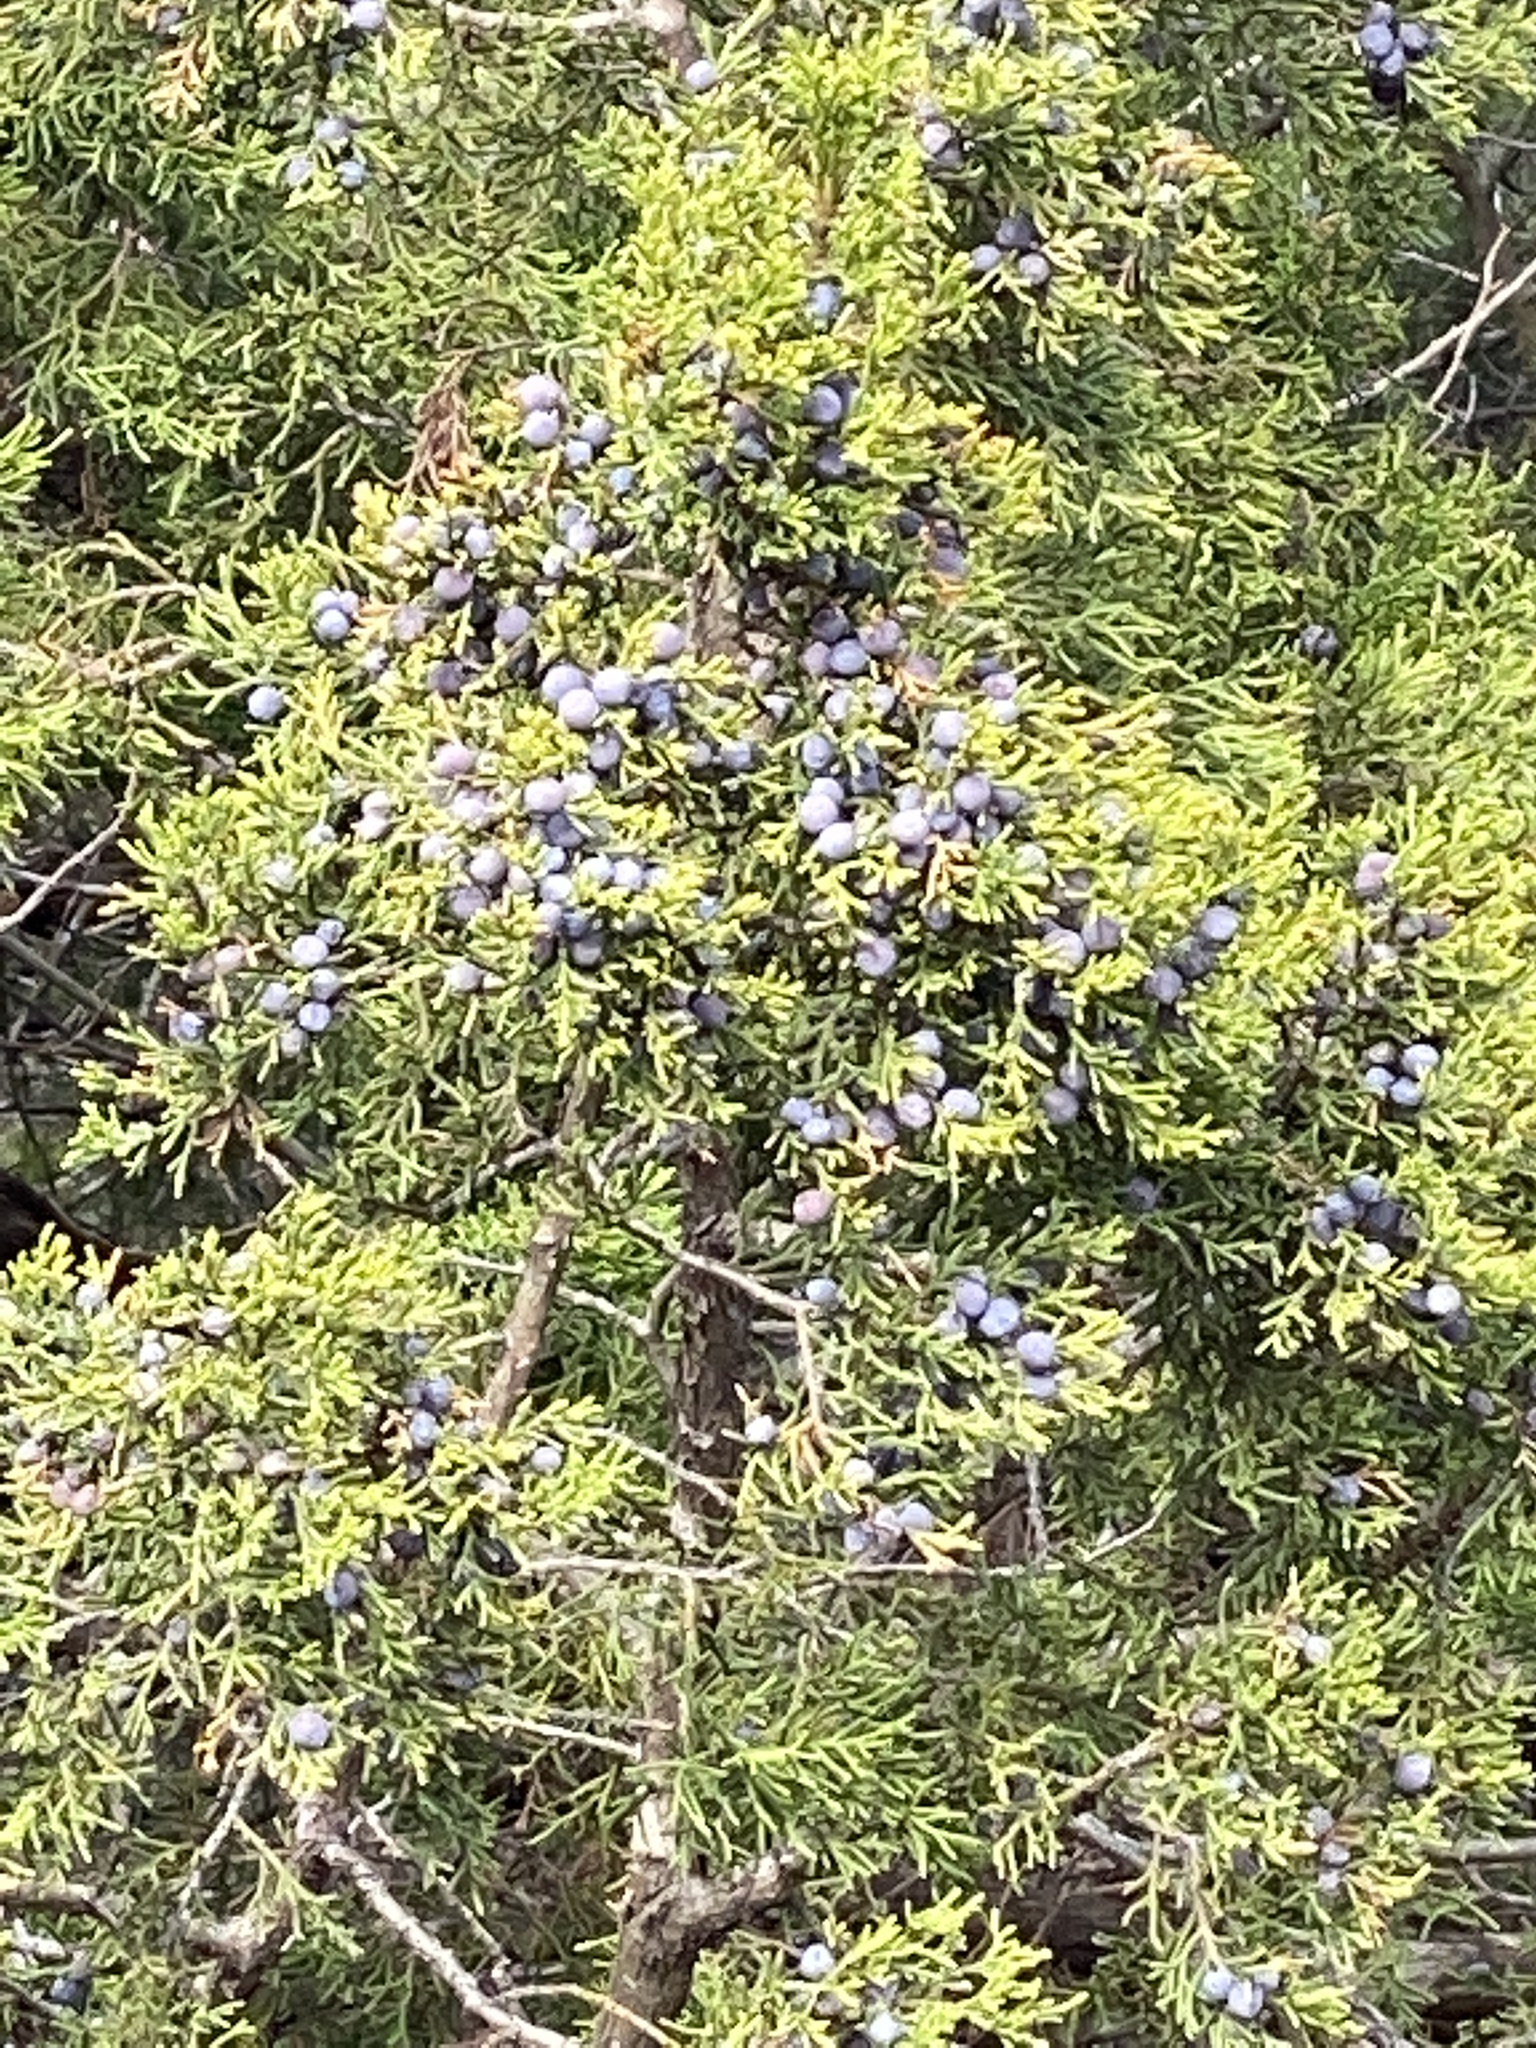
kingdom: Plantae
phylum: Tracheophyta
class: Pinopsida
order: Pinales
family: Cupressaceae
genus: Juniperus
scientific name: Juniperus ashei
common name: Mexican juniper
